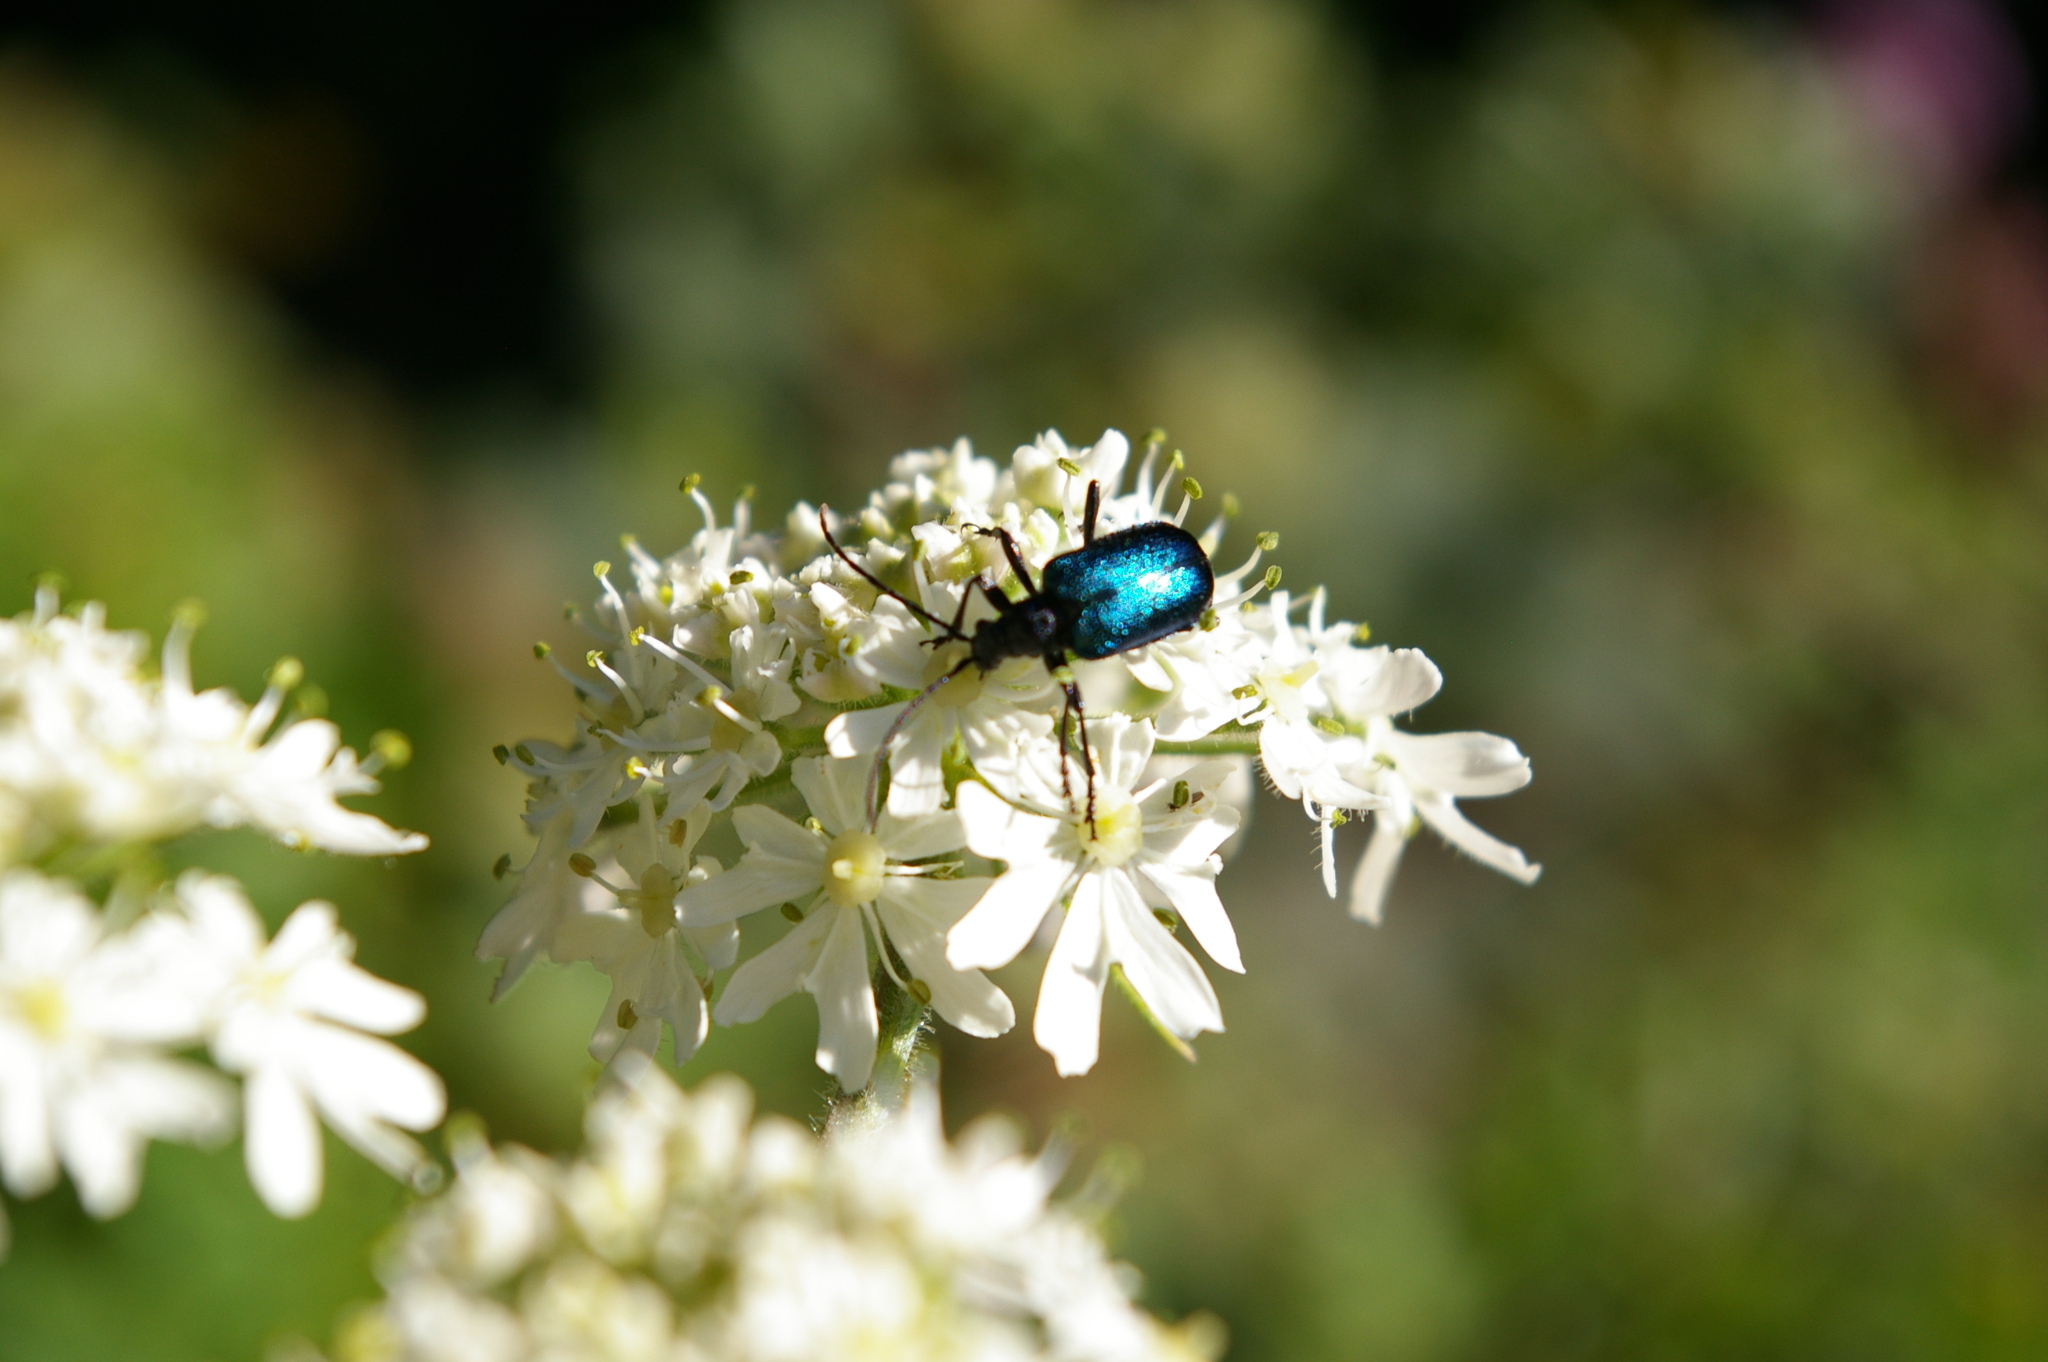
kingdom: Animalia
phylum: Arthropoda
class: Insecta
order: Coleoptera
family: Cerambycidae
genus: Gaurotes
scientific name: Gaurotes virginea
